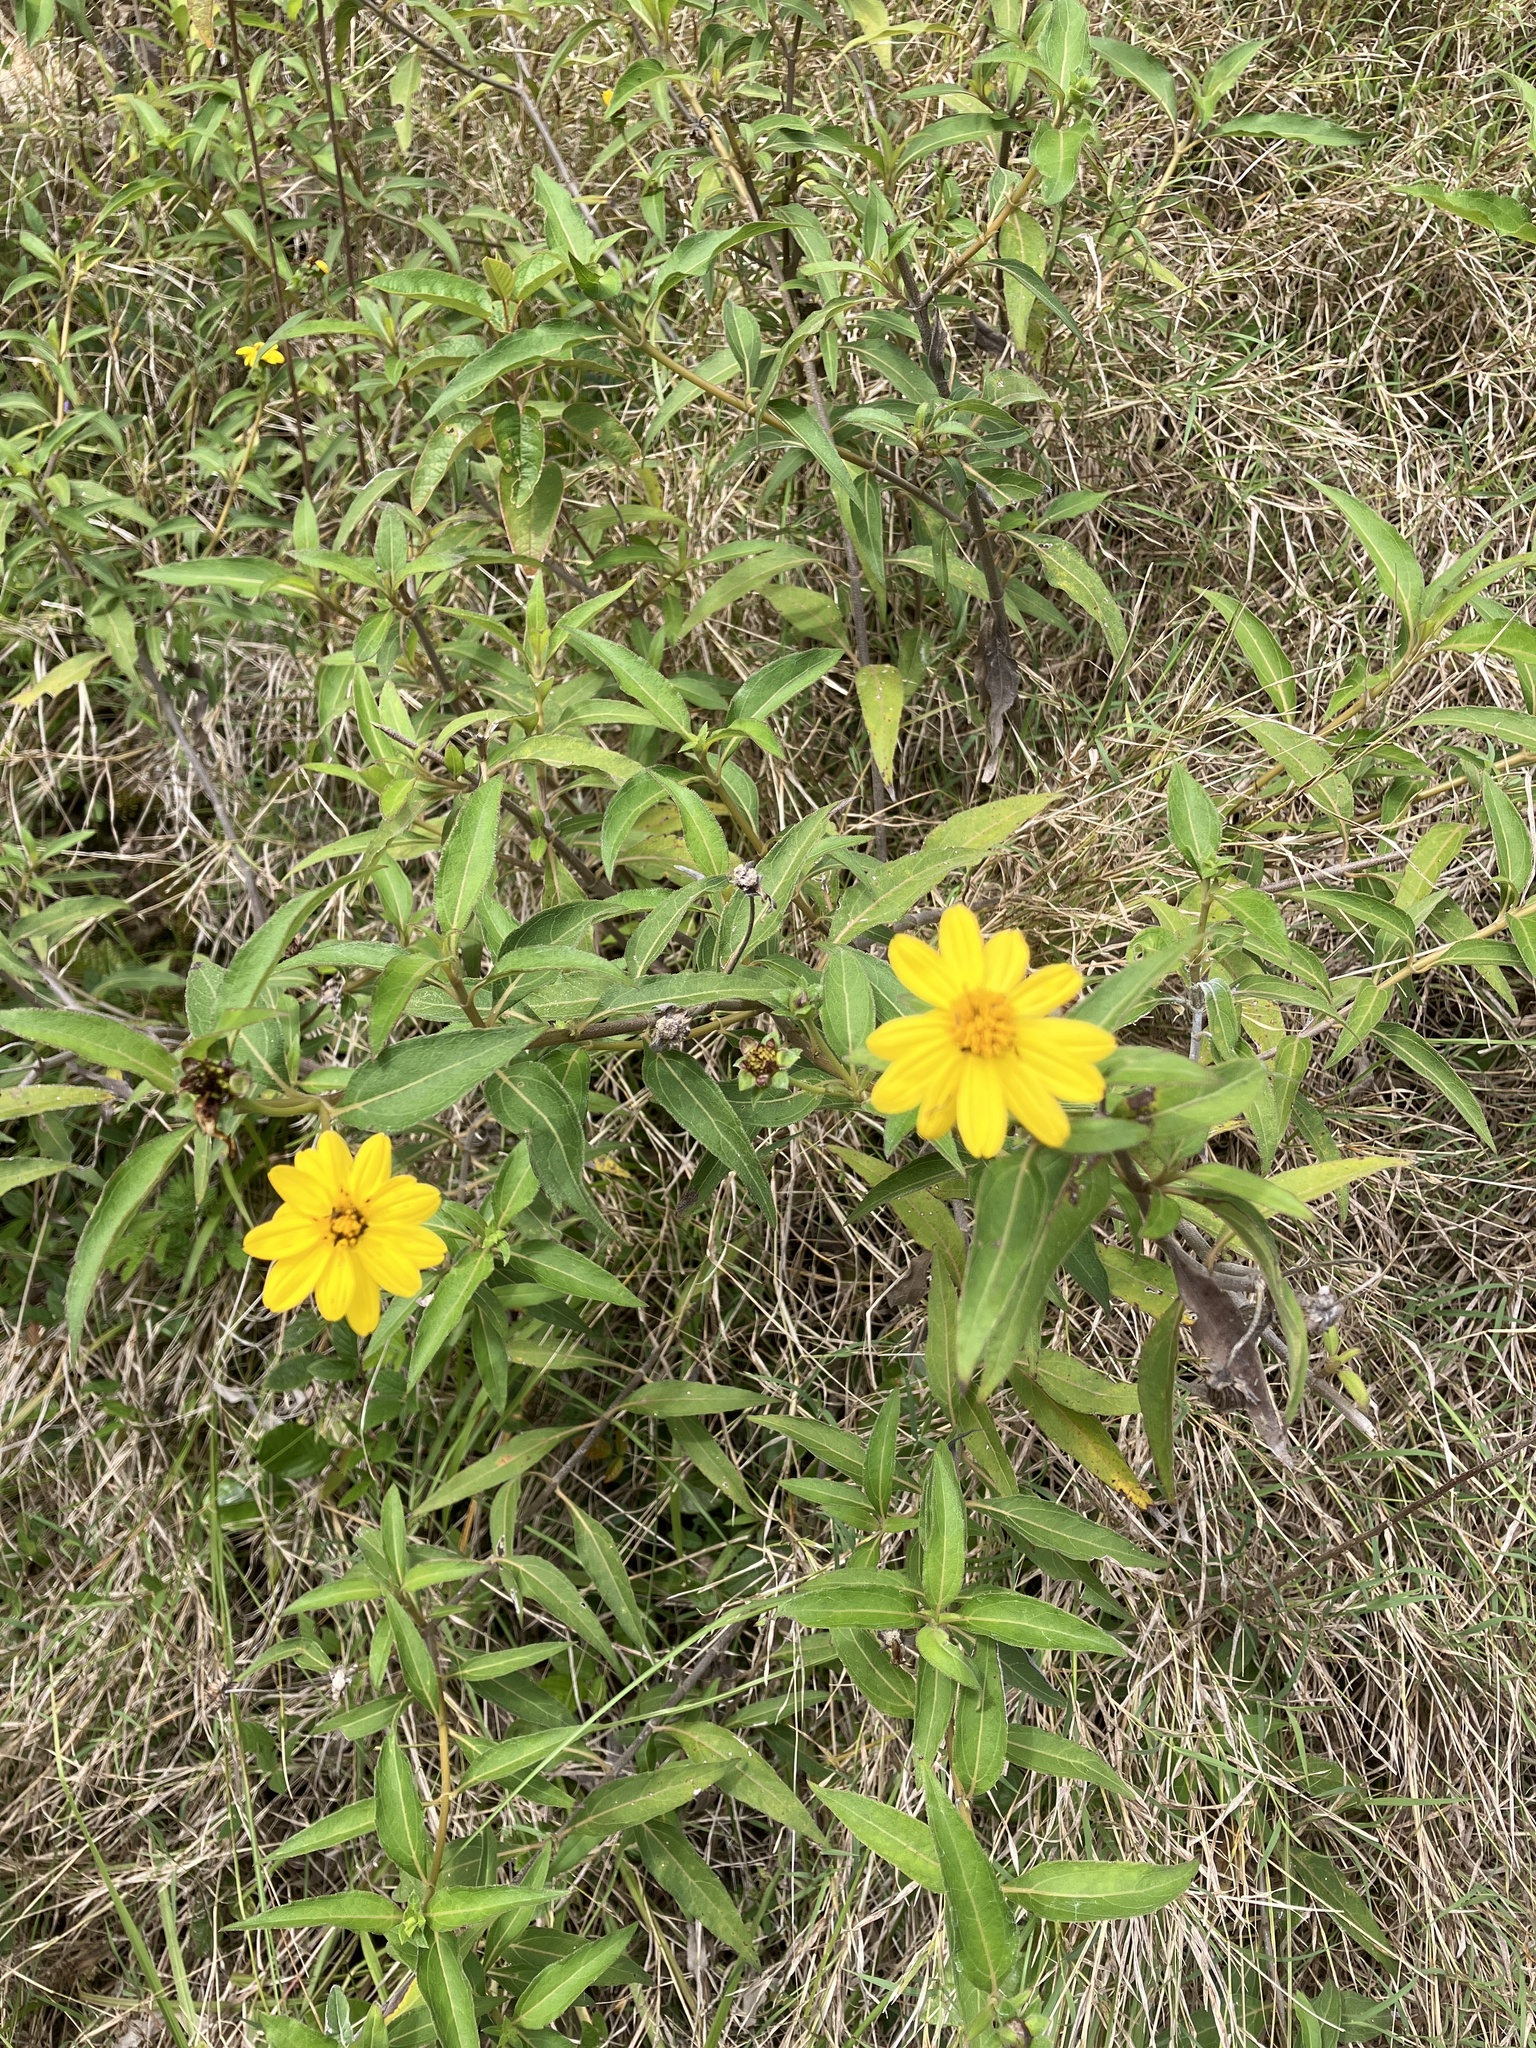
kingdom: Plantae
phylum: Tracheophyta
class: Magnoliopsida
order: Asterales
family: Asteraceae
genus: Wedelia
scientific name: Wedelia calycina
